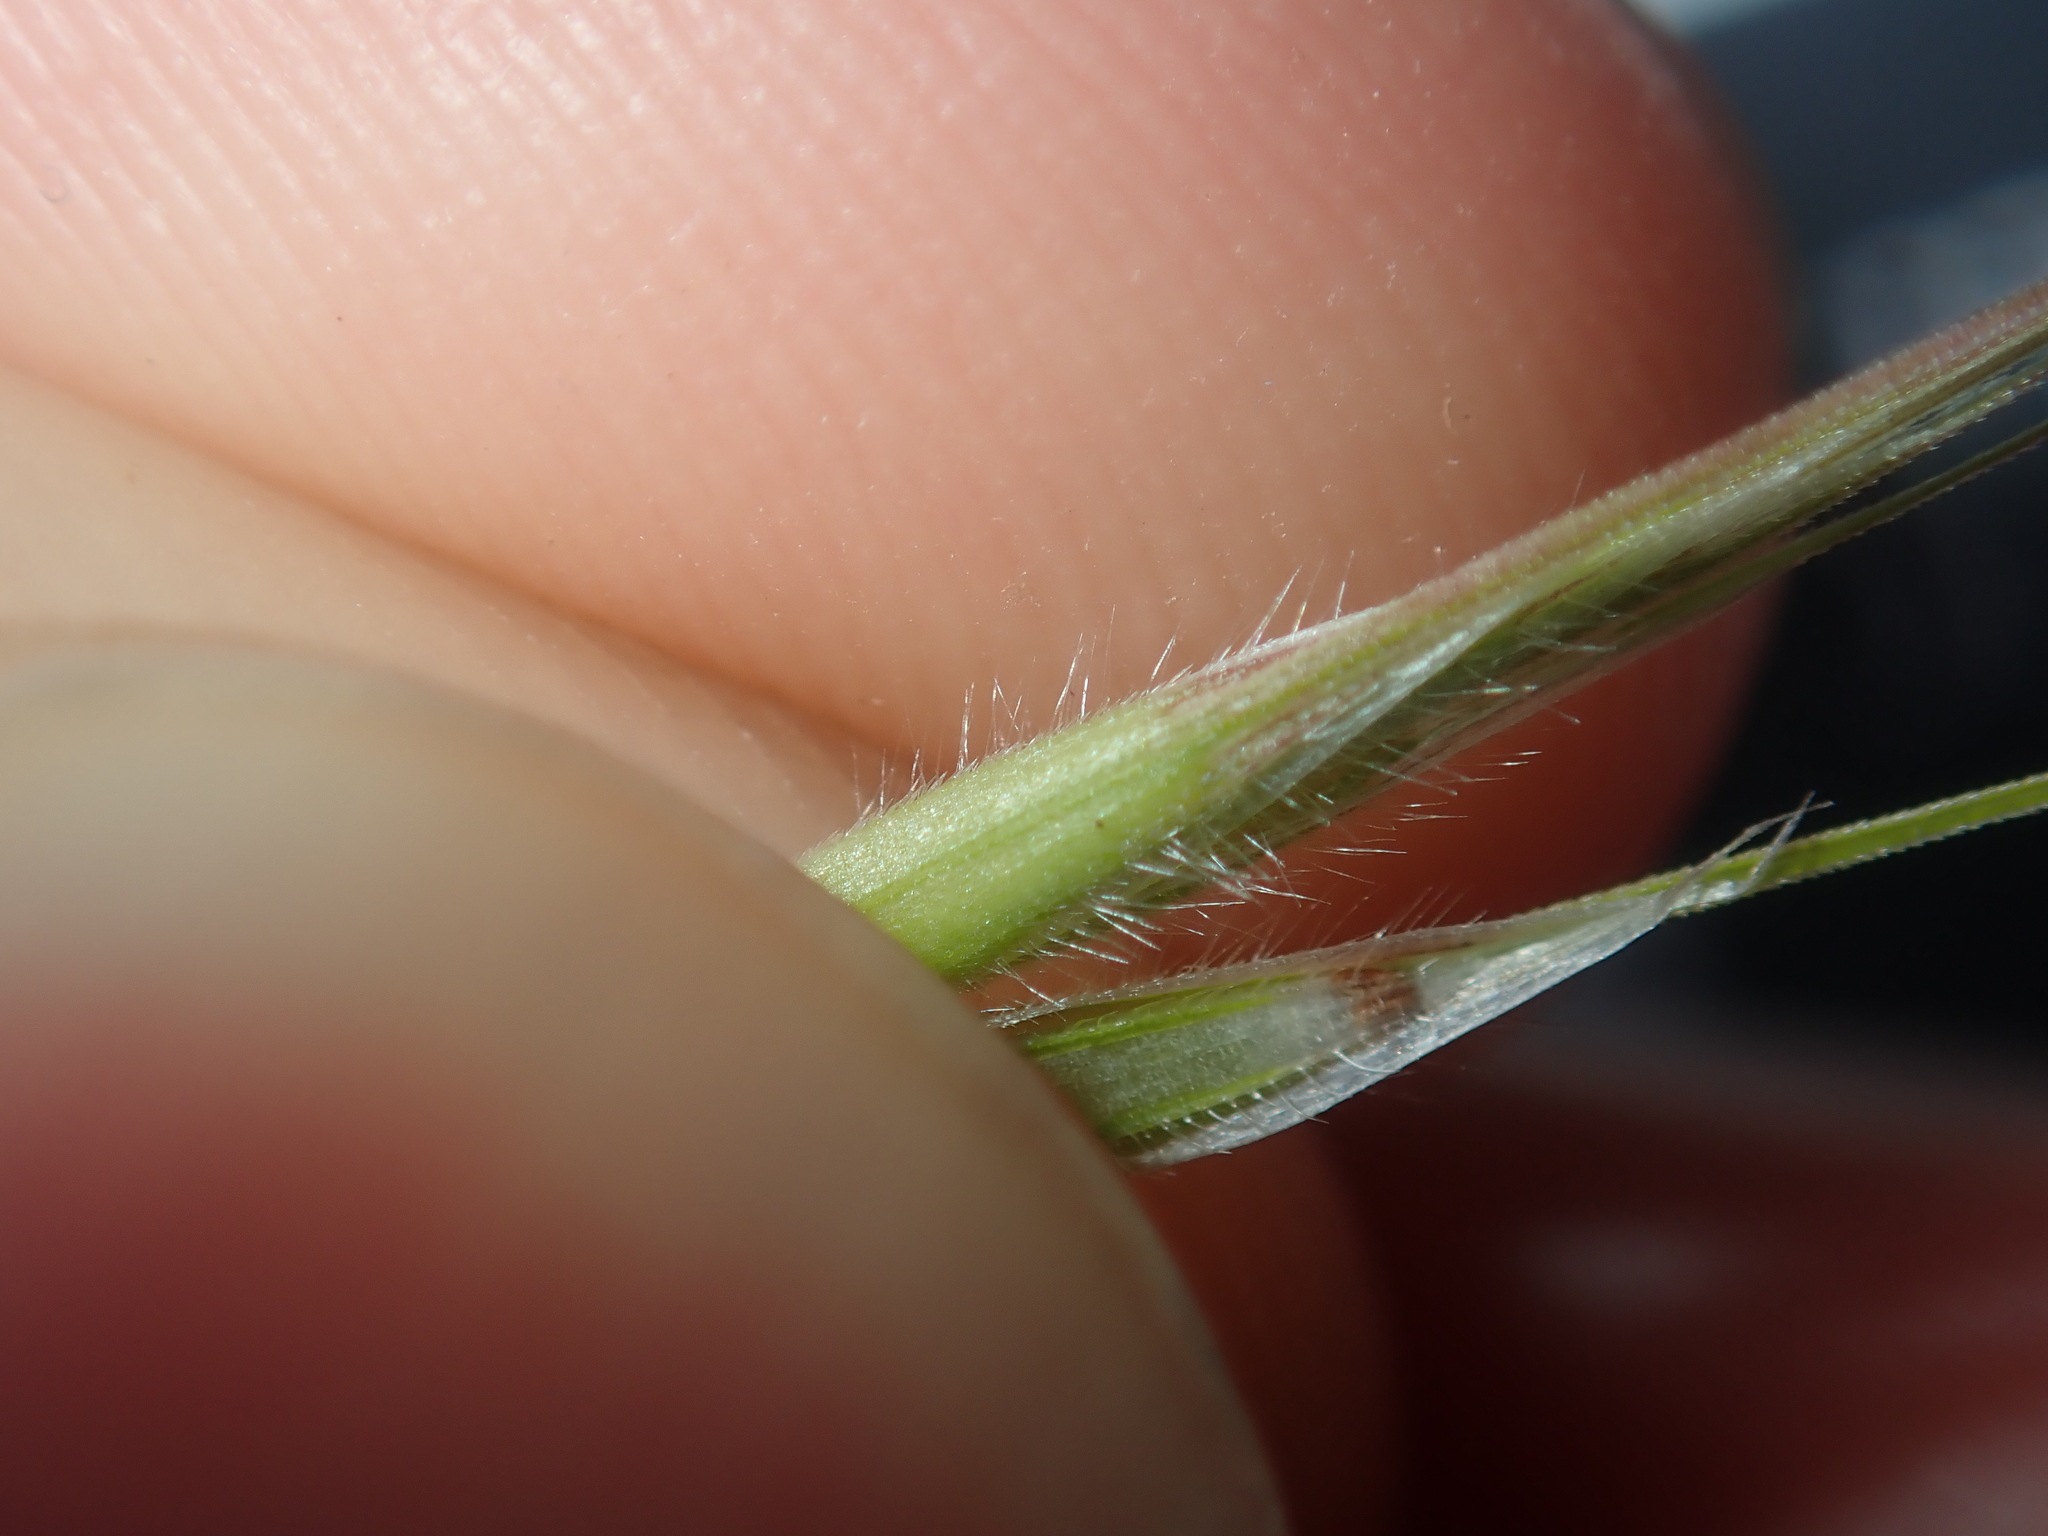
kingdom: Plantae
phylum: Tracheophyta
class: Liliopsida
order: Poales
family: Poaceae
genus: Bromus
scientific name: Bromus rubens
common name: Red brome
